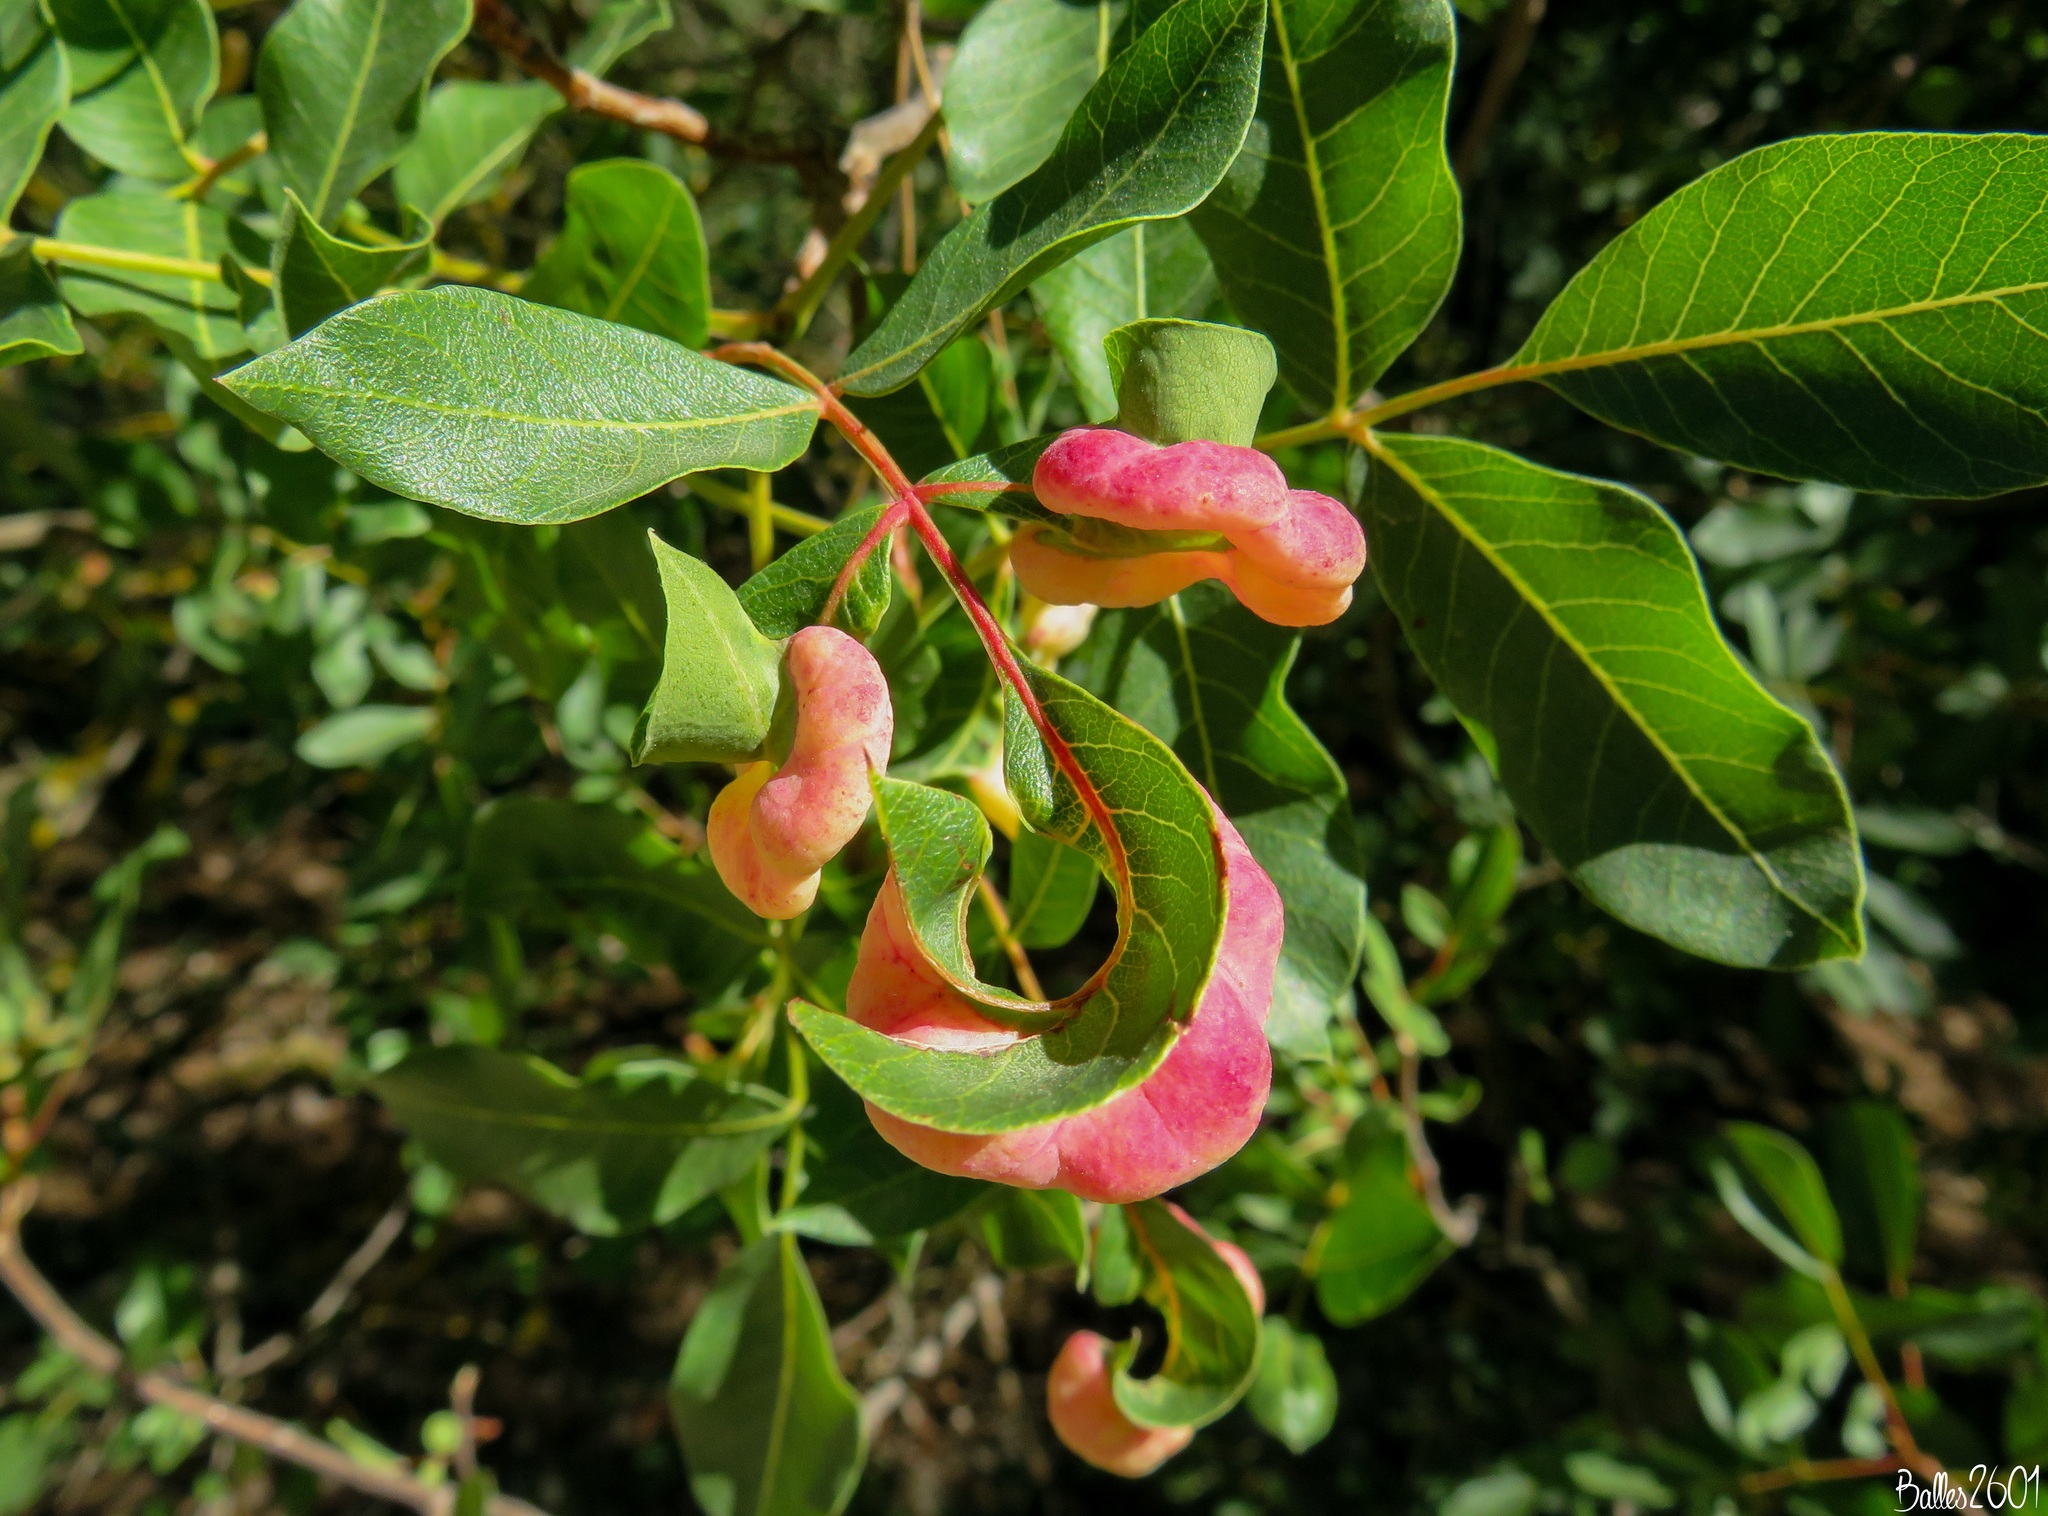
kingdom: Animalia
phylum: Arthropoda
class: Insecta
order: Hemiptera
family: Aphididae
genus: Forda
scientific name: Forda formicaria
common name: Root aphid
